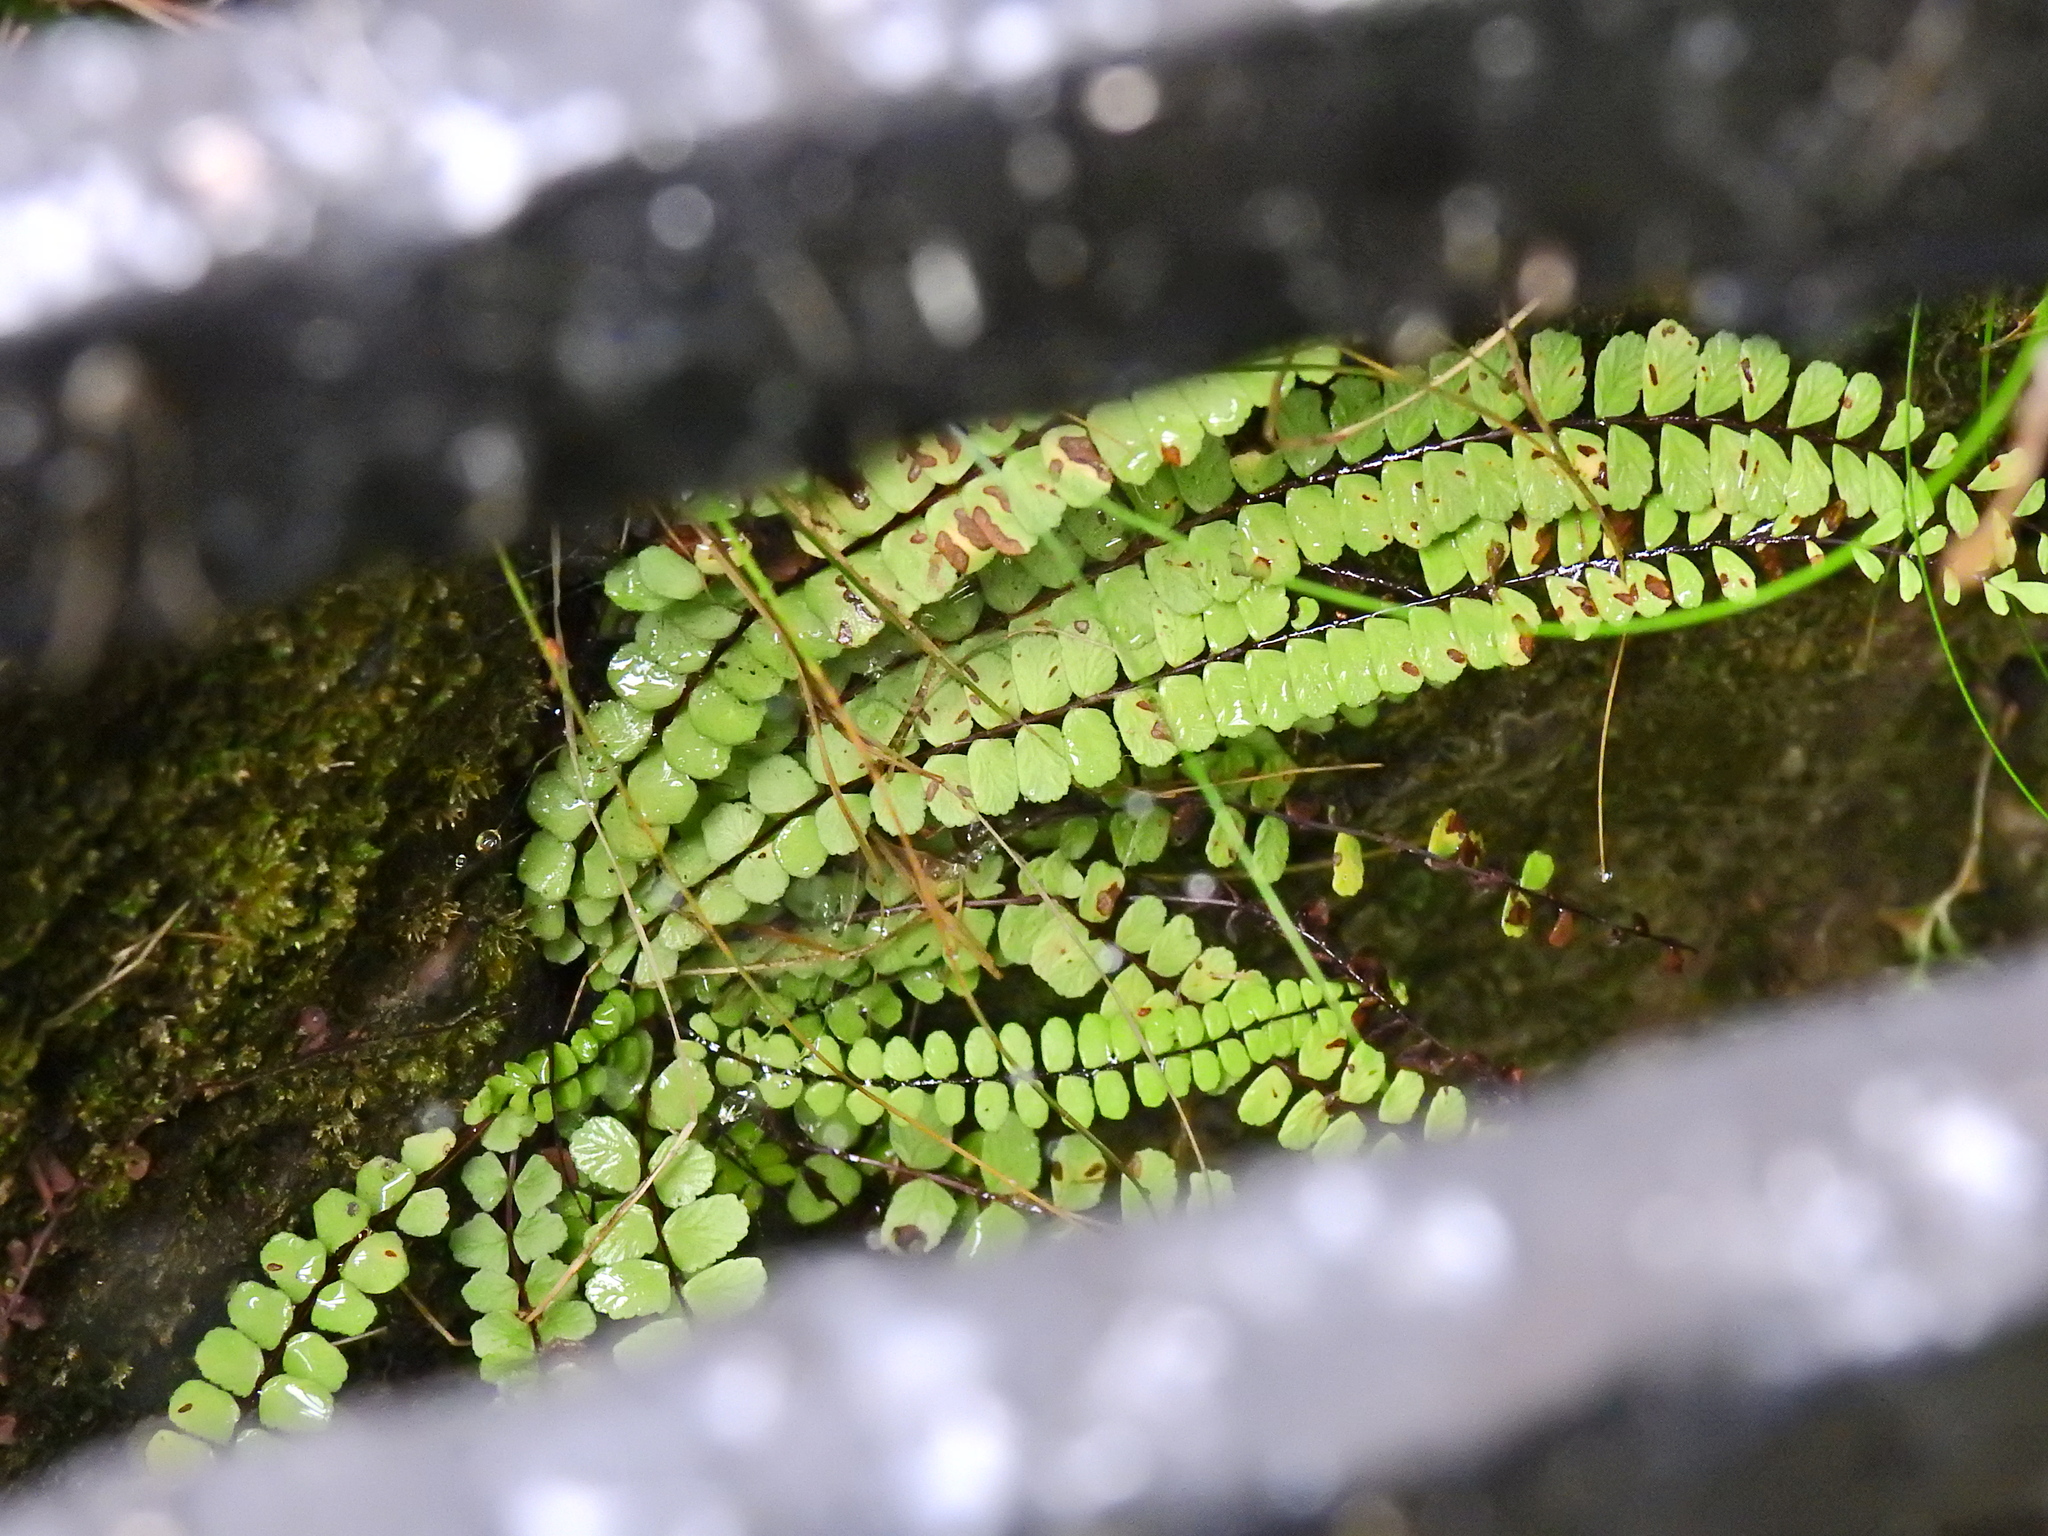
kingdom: Plantae
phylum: Tracheophyta
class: Polypodiopsida
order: Polypodiales
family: Aspleniaceae
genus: Asplenium
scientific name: Asplenium trichomanes
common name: Maidenhair spleenwort
